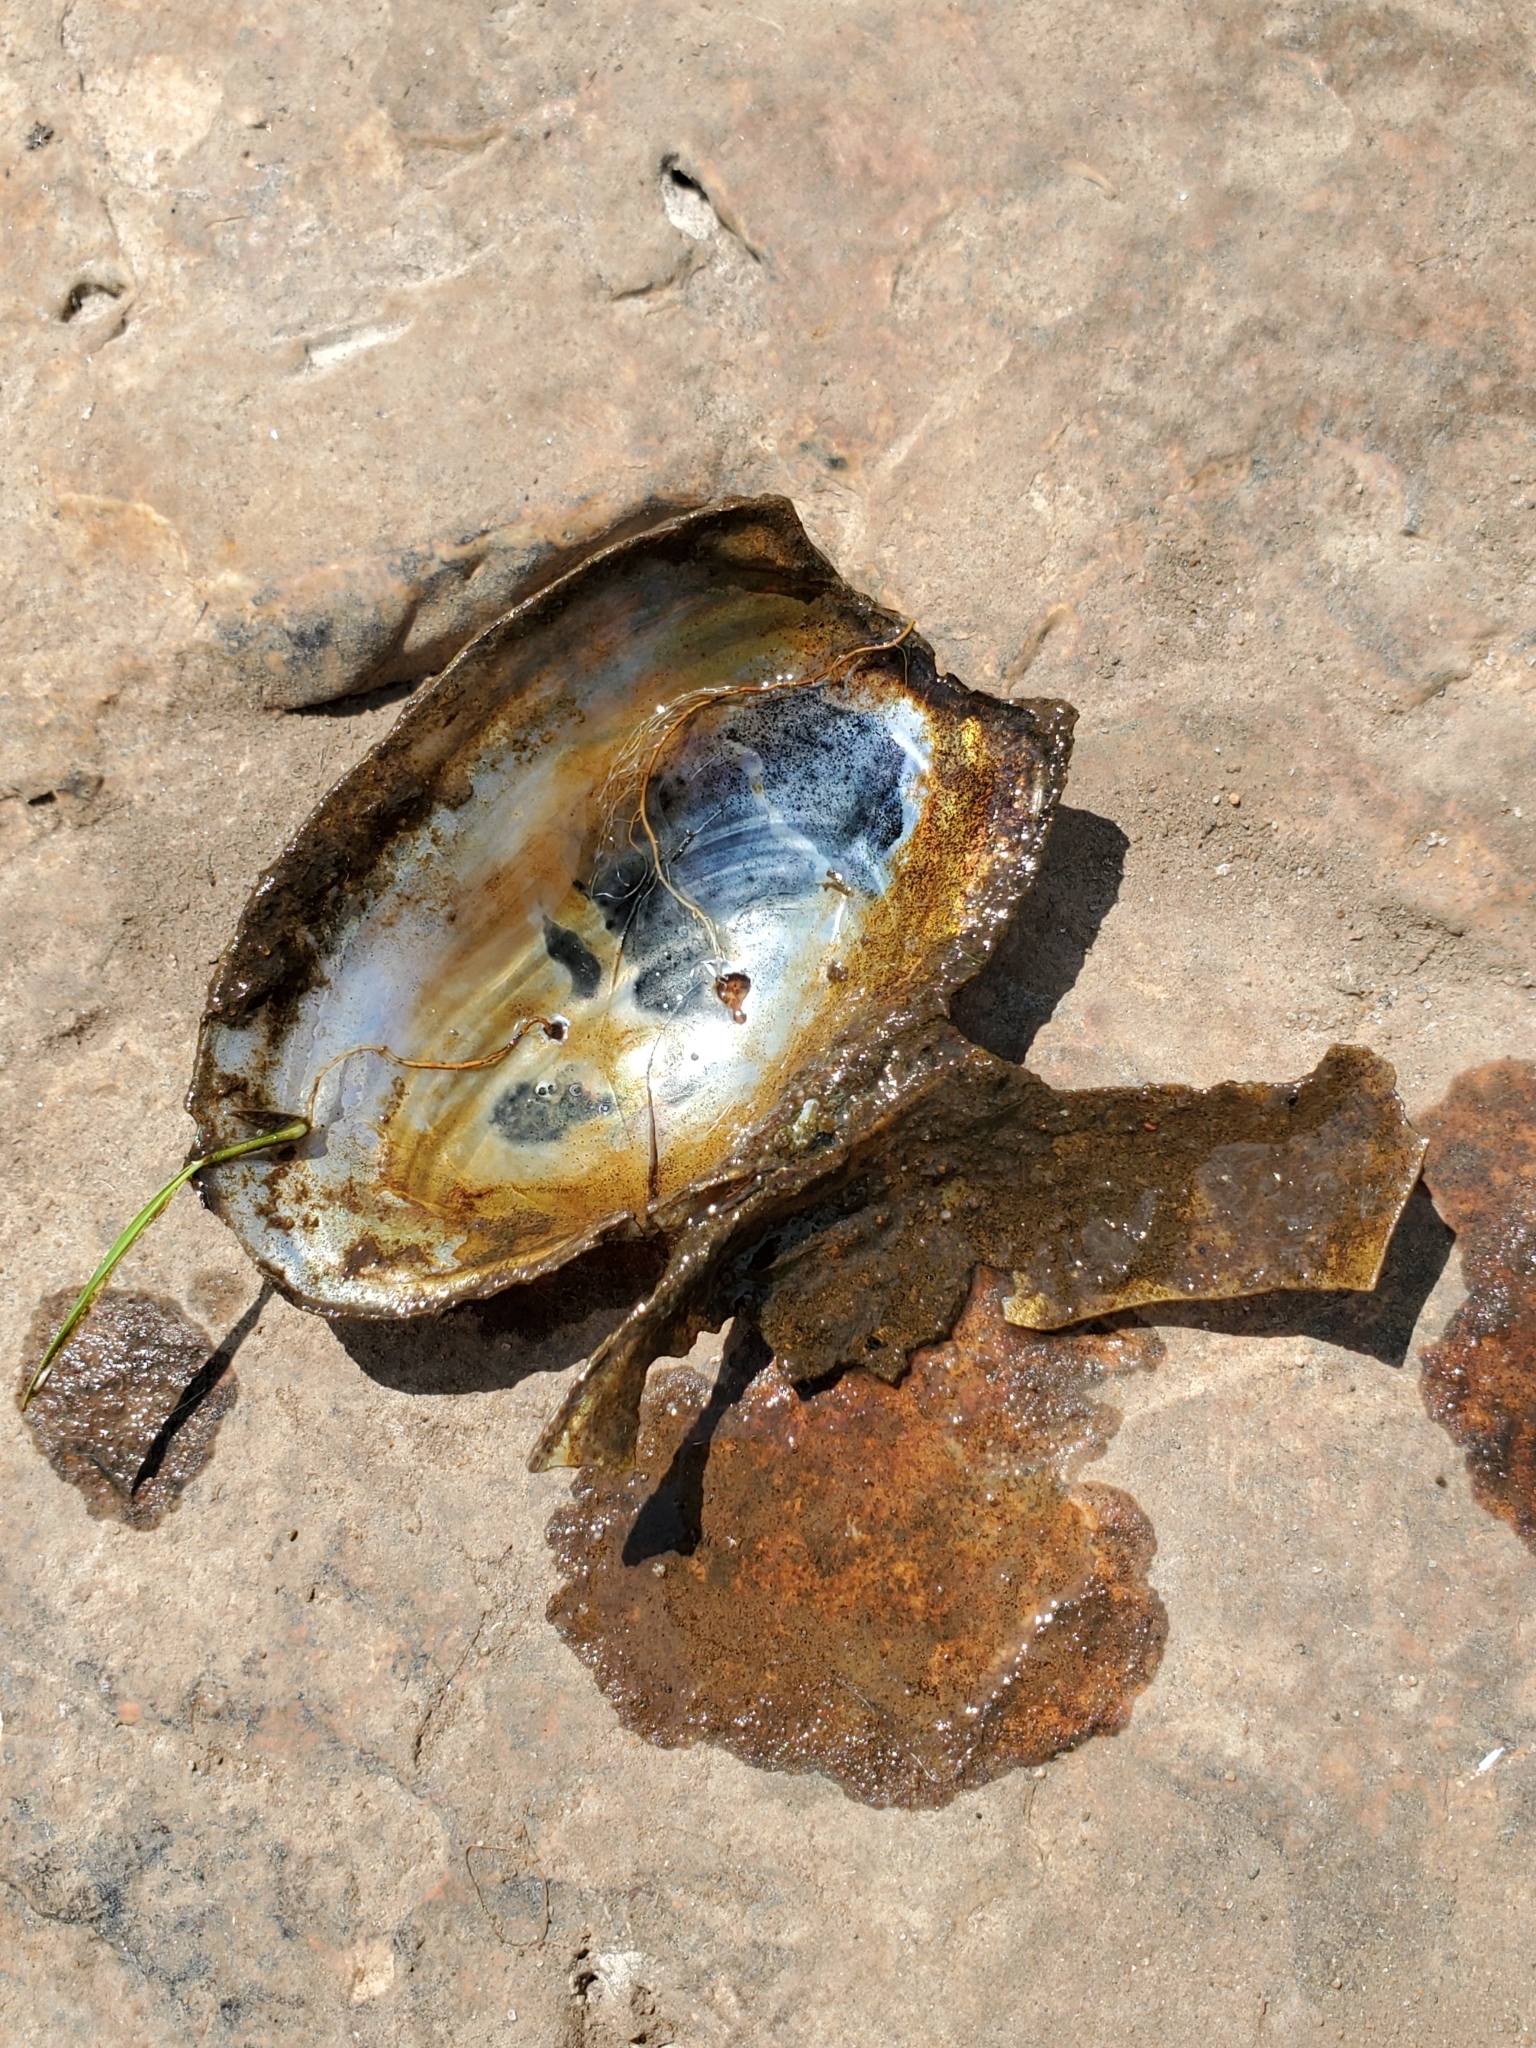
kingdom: Animalia
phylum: Mollusca
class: Bivalvia
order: Unionida
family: Unionidae
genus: Pyganodon
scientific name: Pyganodon grandis
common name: Giant floater
